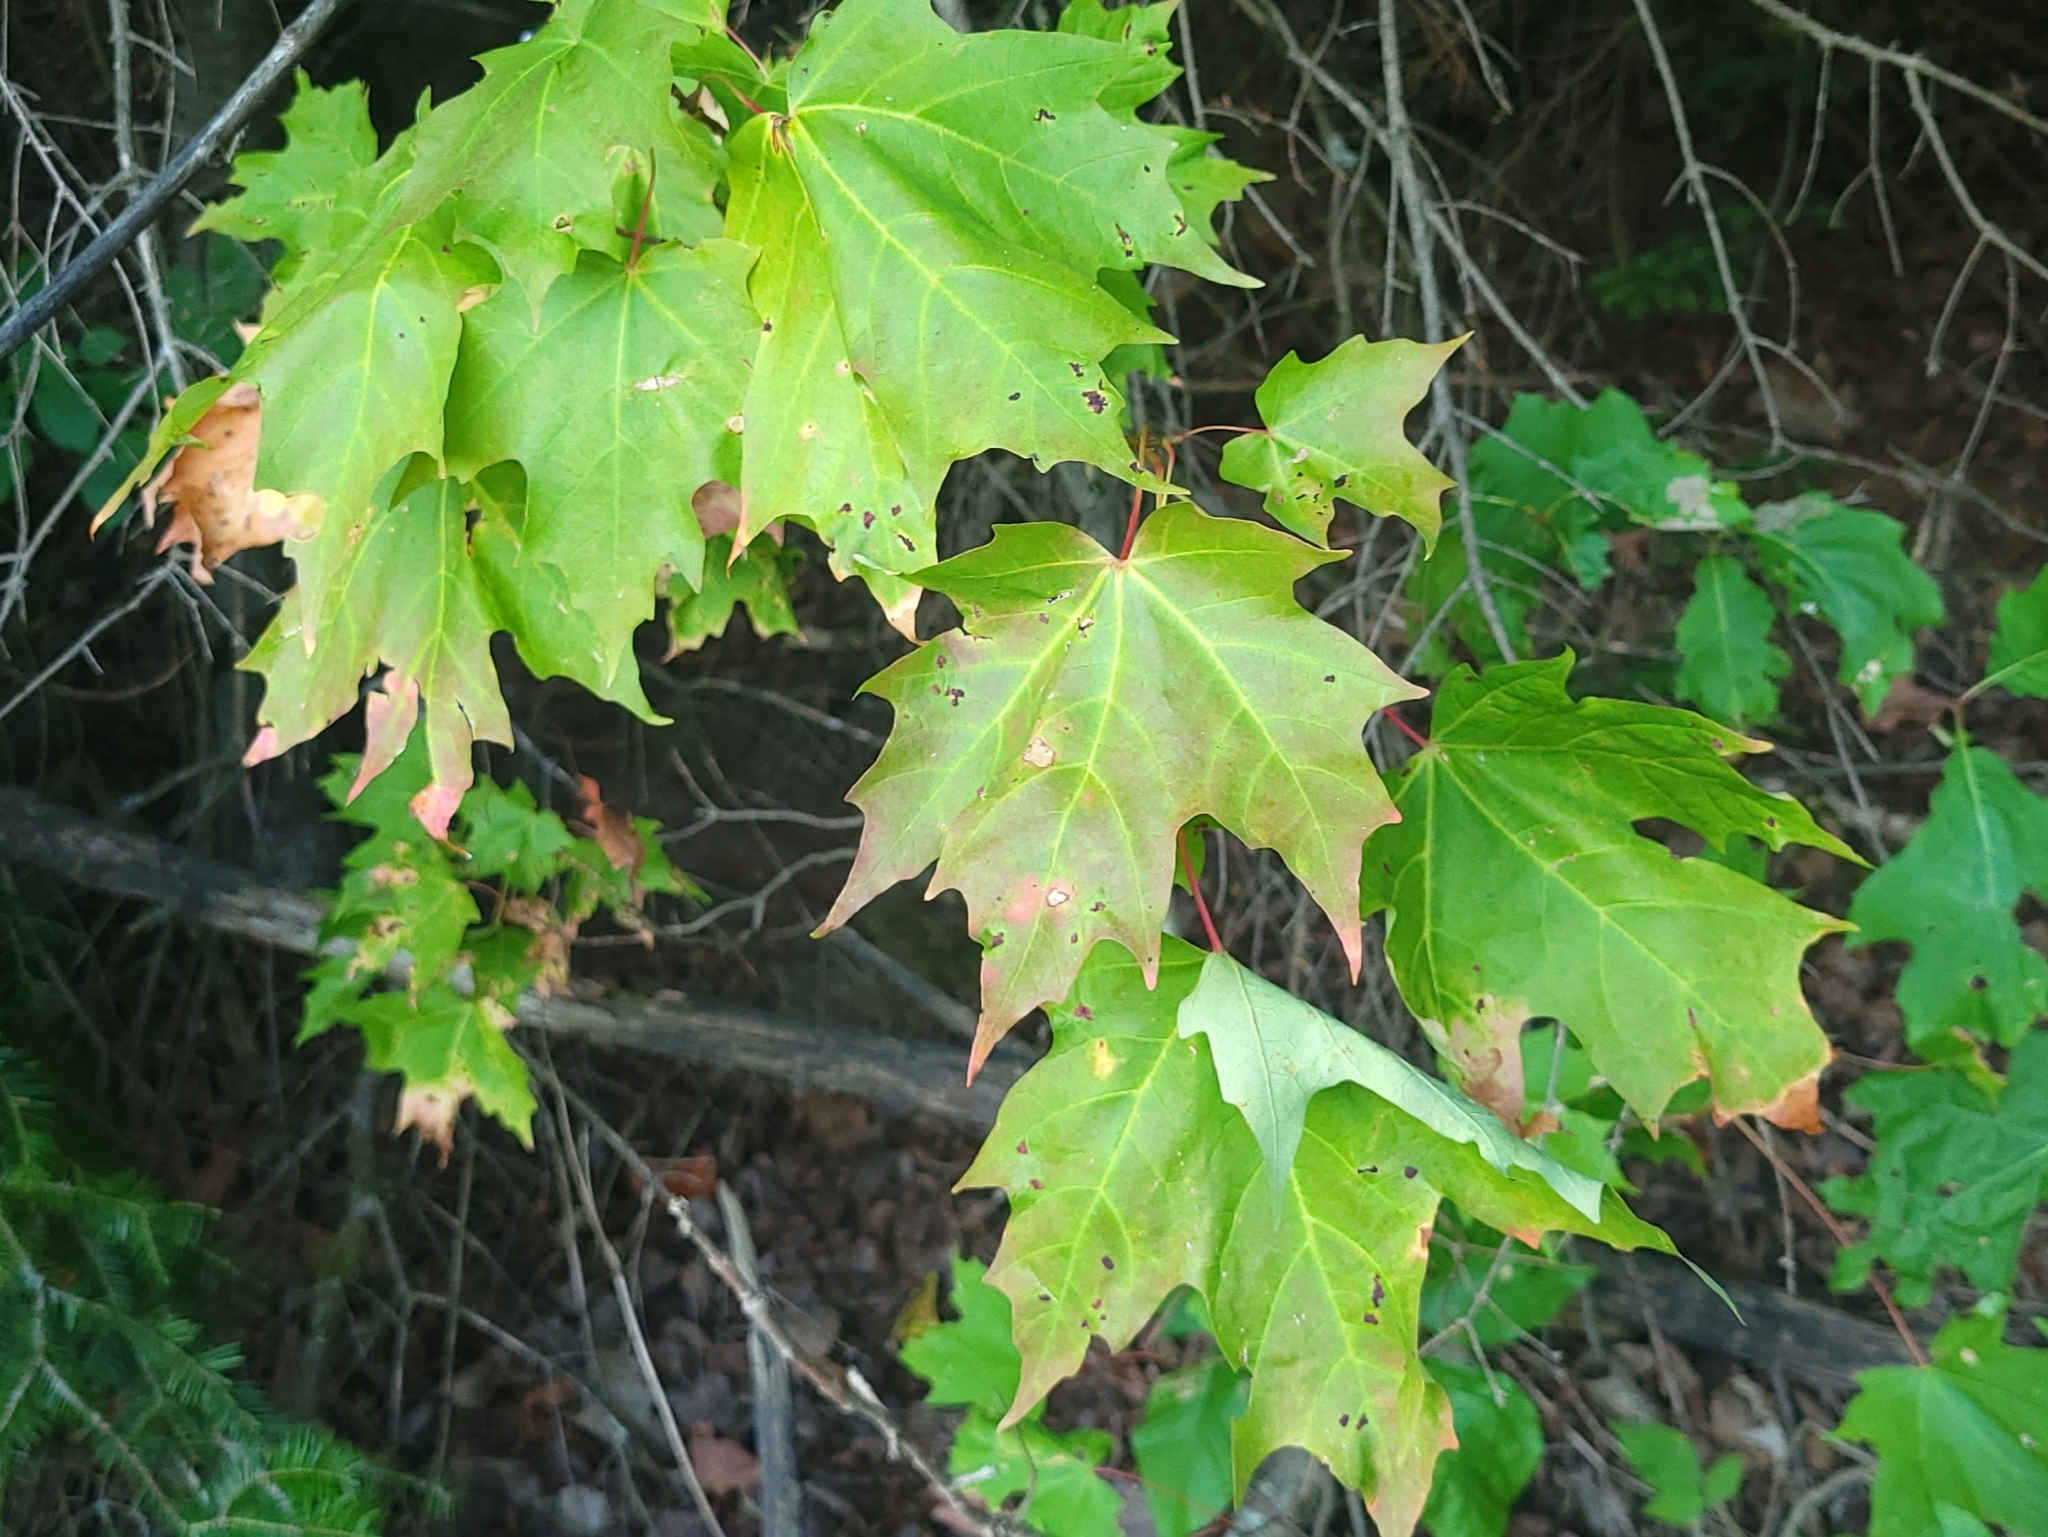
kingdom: Plantae
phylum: Tracheophyta
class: Magnoliopsida
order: Sapindales
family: Sapindaceae
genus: Acer
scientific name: Acer saccharum
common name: Sugar maple
